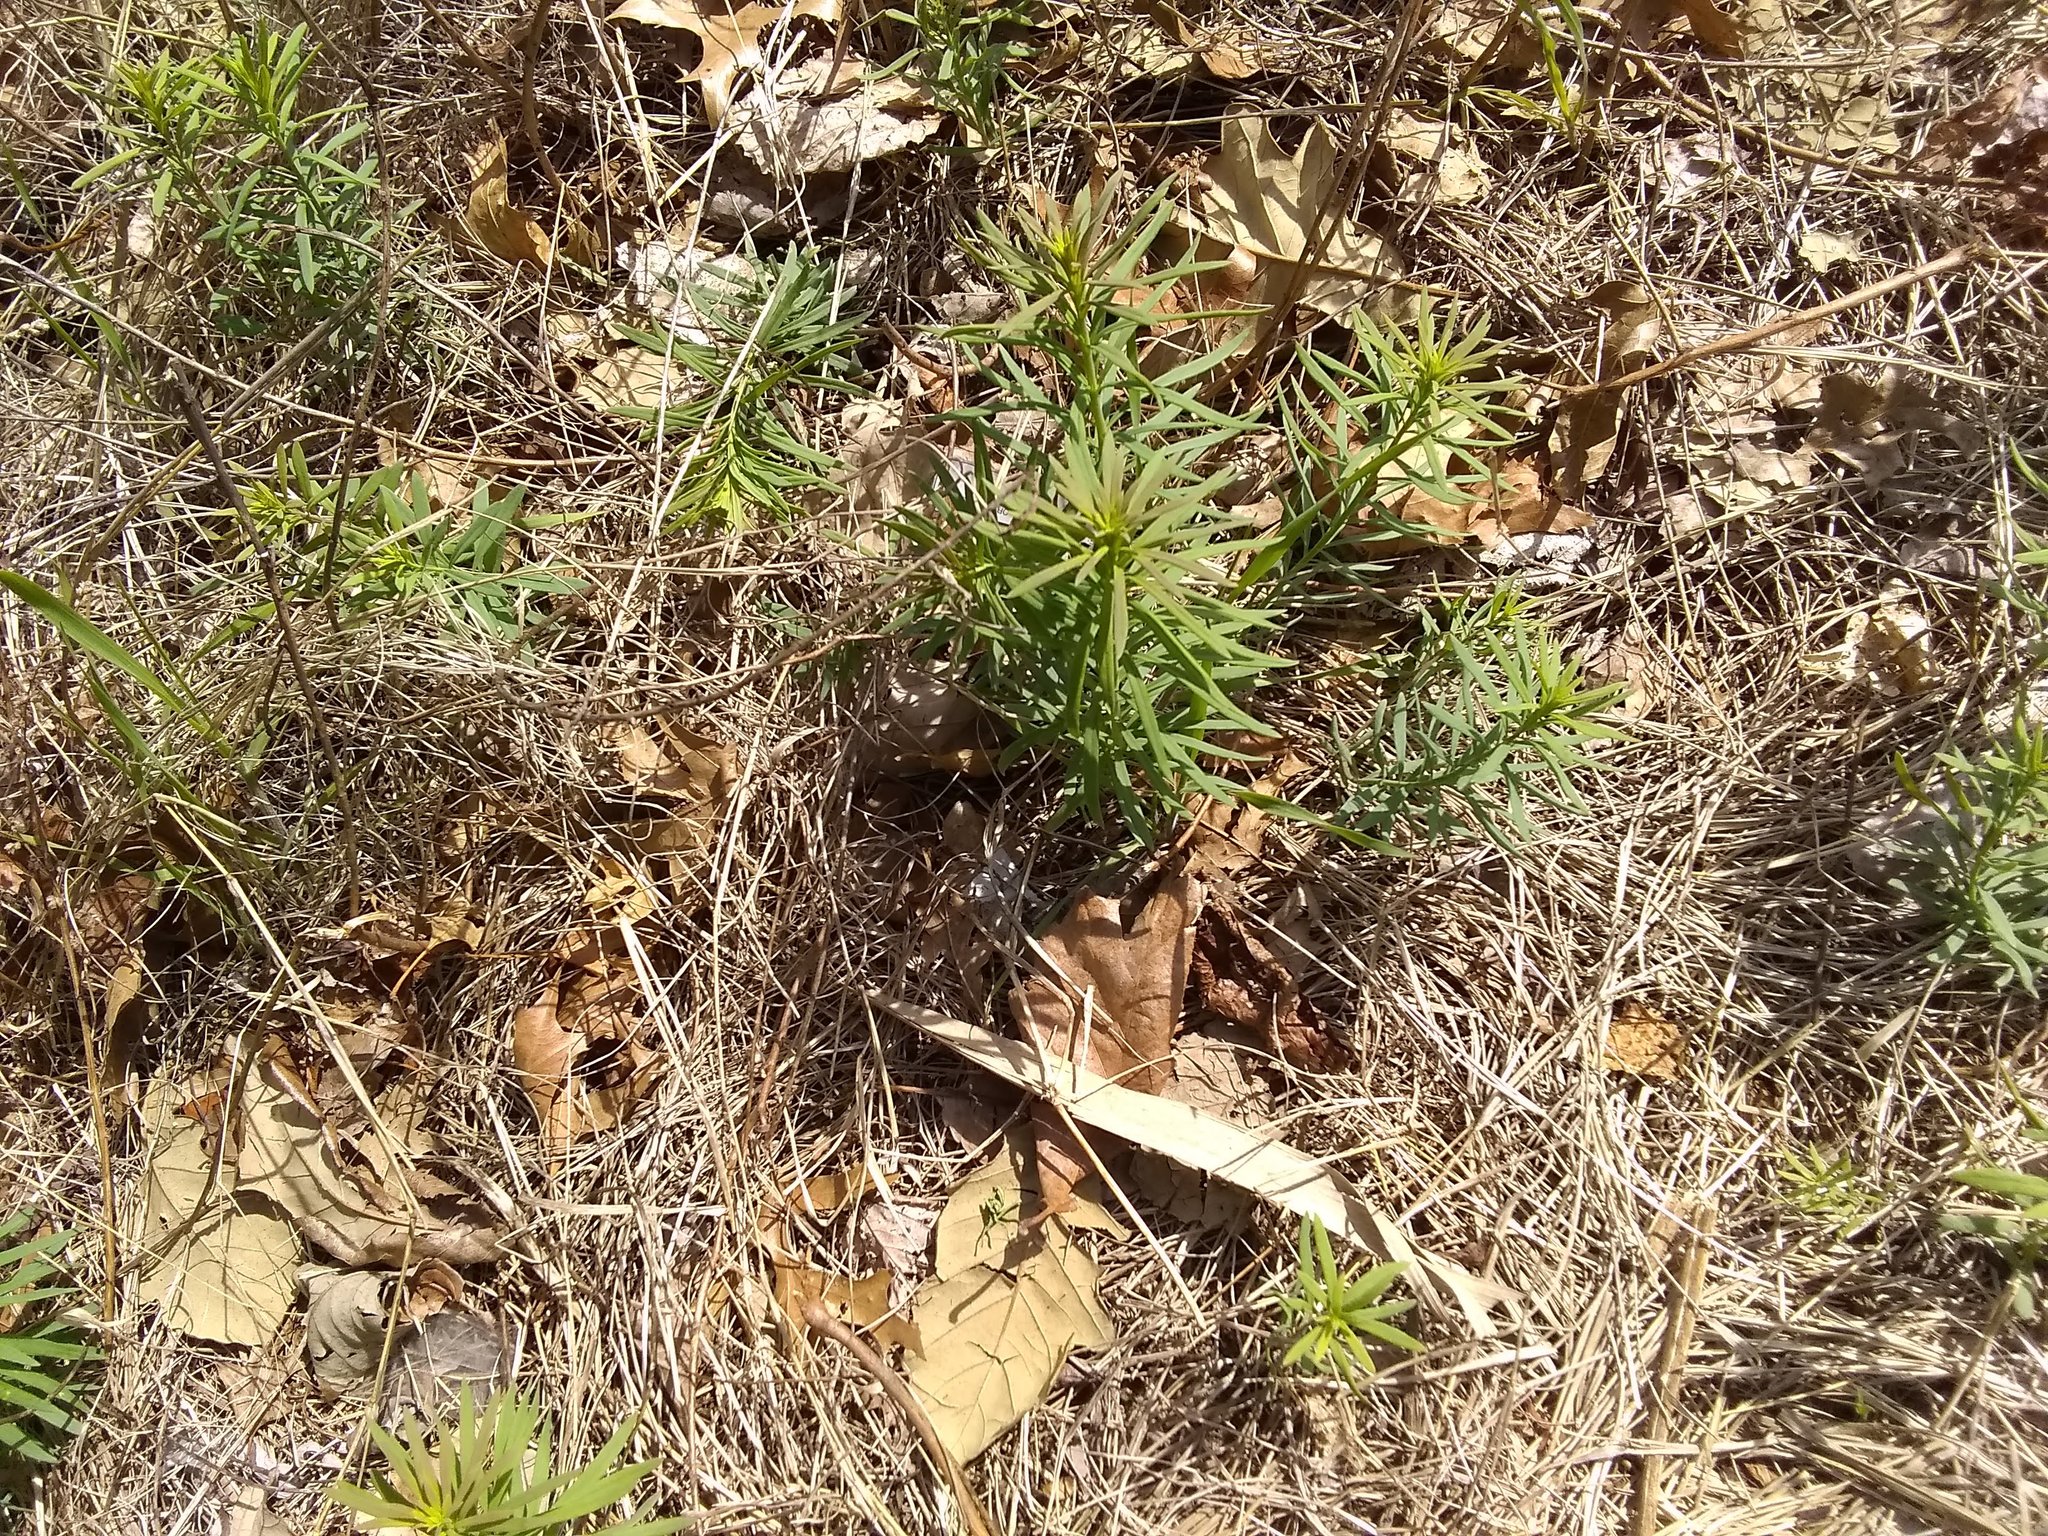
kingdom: Plantae
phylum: Tracheophyta
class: Magnoliopsida
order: Malpighiales
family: Euphorbiaceae
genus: Euphorbia
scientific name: Euphorbia cyparissias
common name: Cypress spurge
